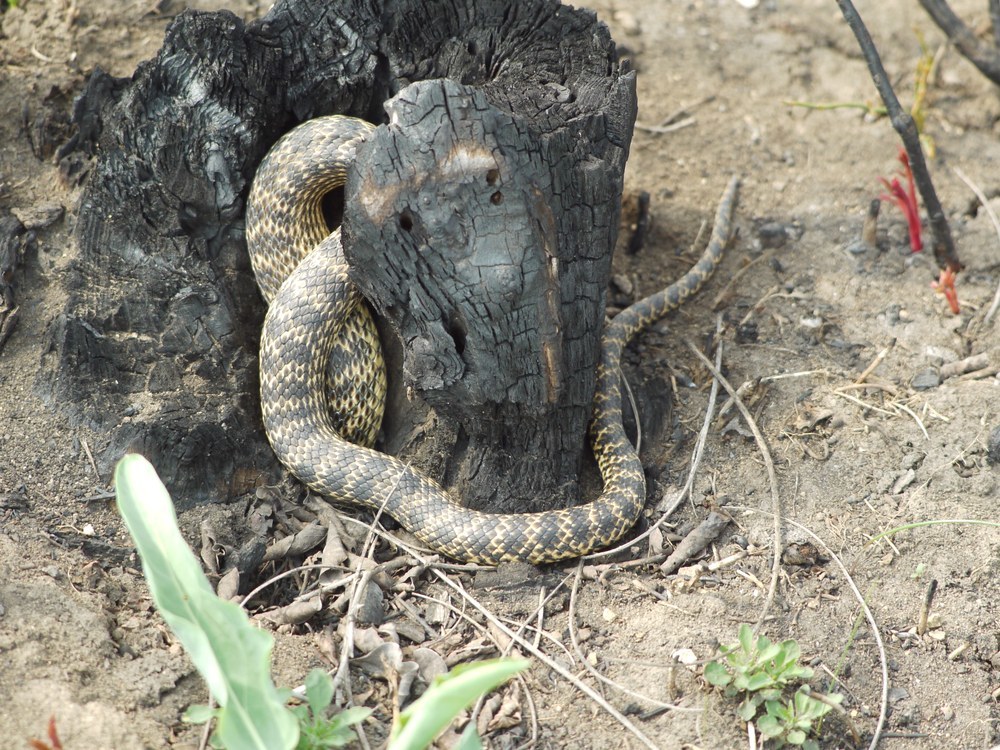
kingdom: Animalia
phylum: Chordata
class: Squamata
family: Colubridae
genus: Elaphe
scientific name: Elaphe sauromates
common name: Eastern four-lined ratsnake
